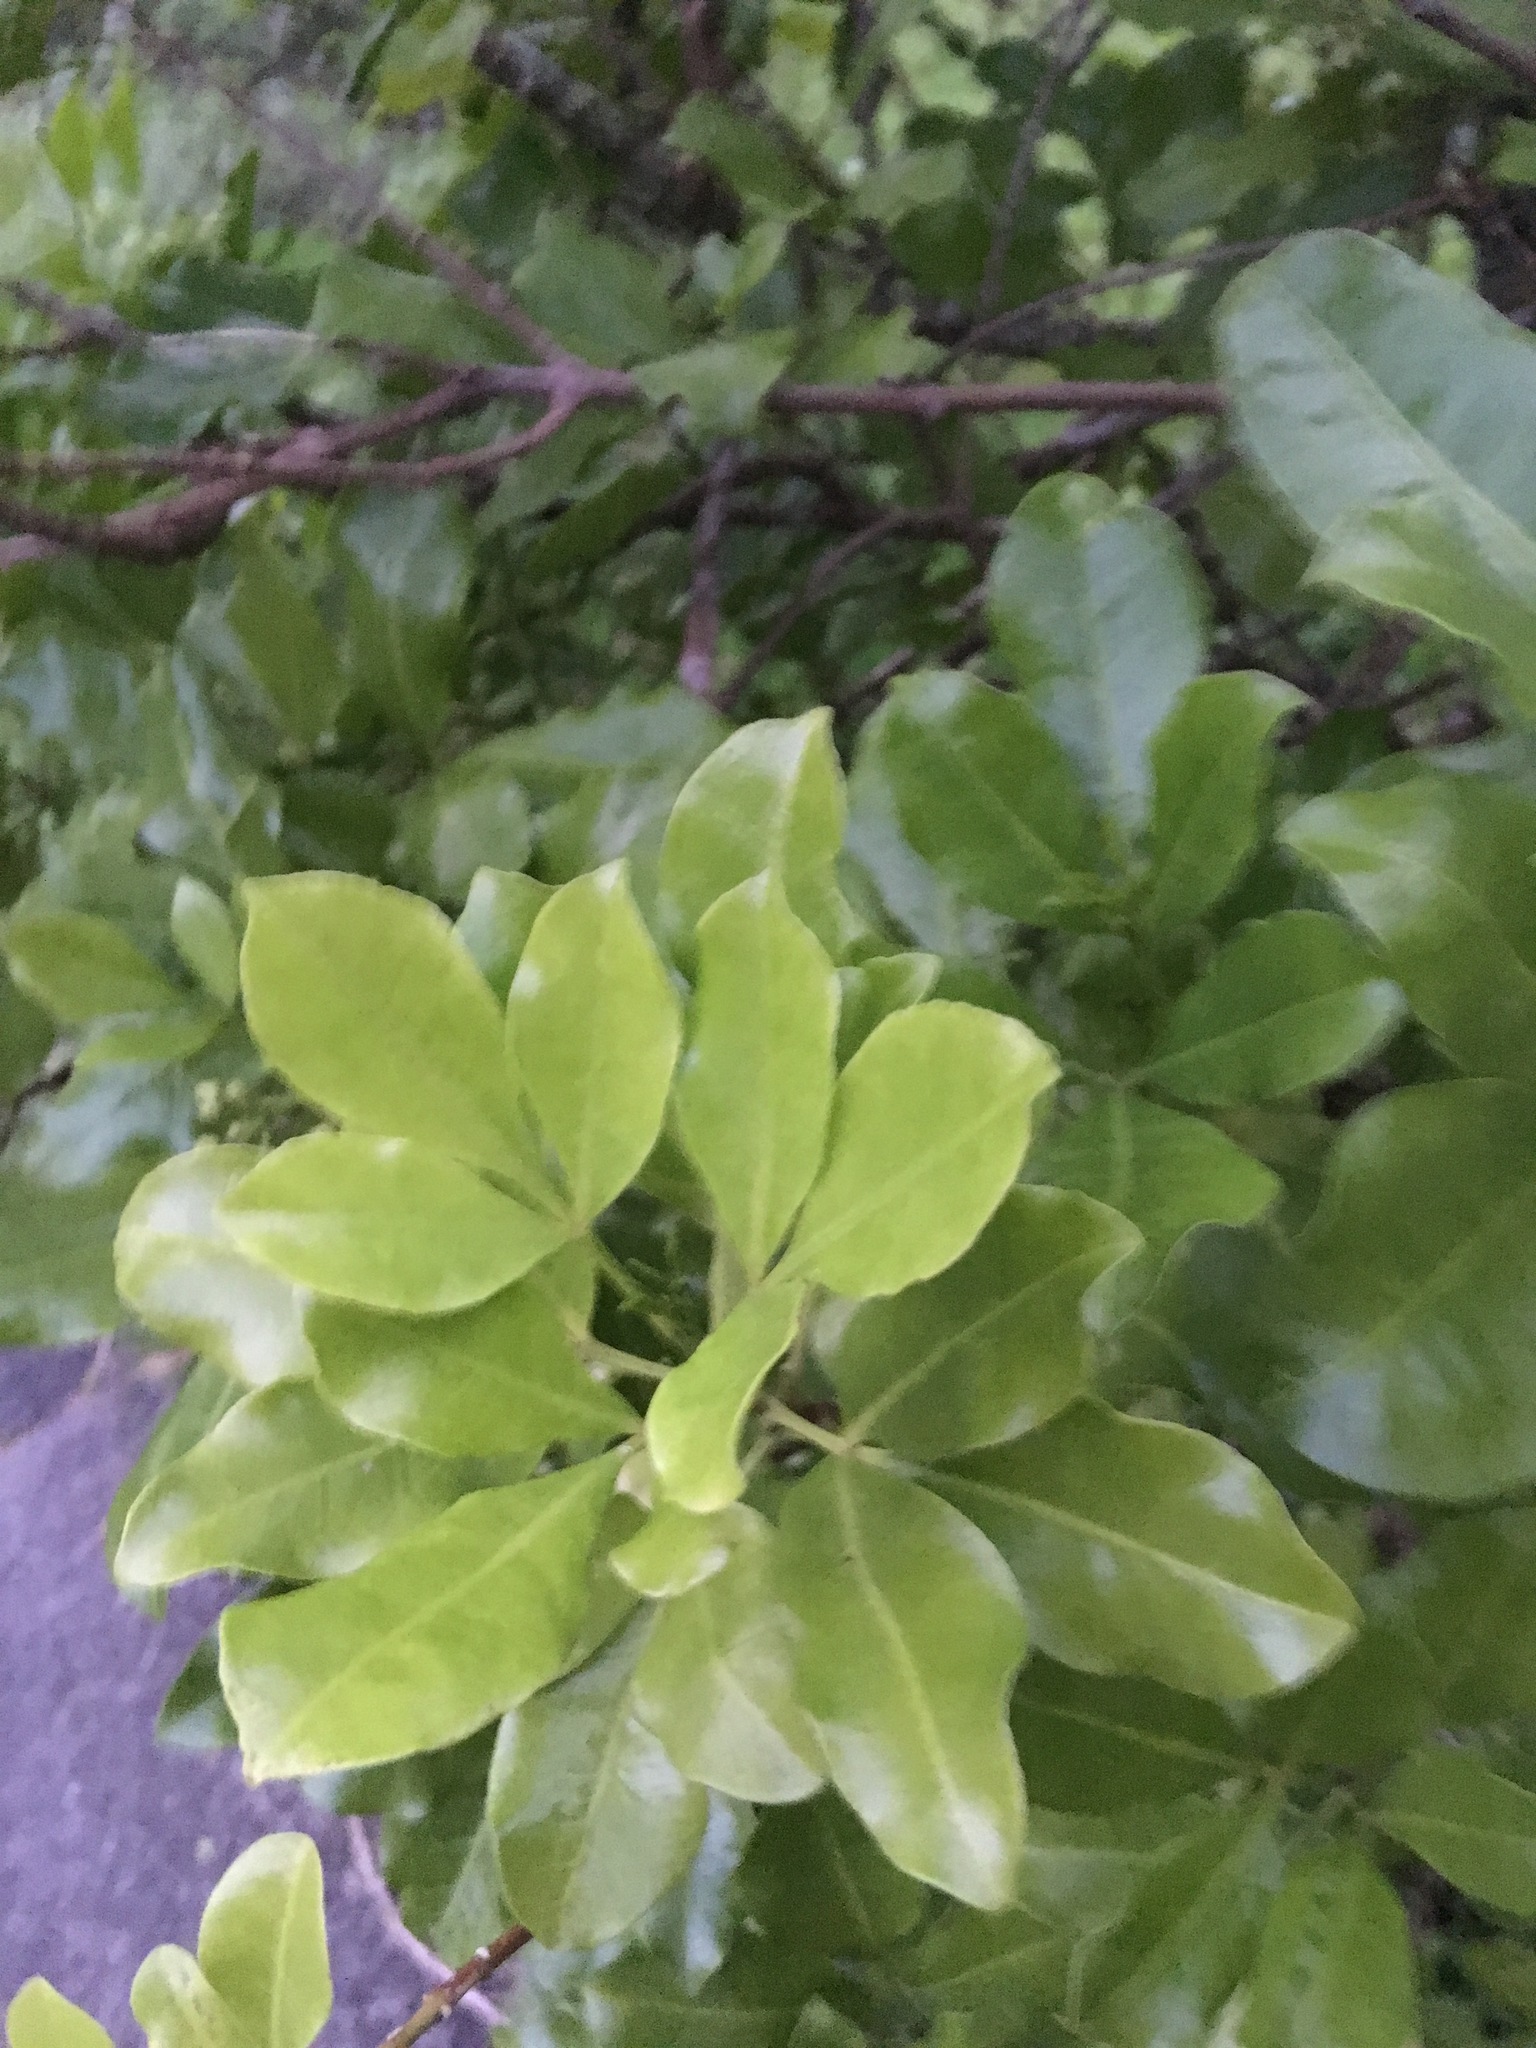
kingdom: Plantae
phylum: Tracheophyta
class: Magnoliopsida
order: Sapindales
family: Rutaceae
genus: Melicope
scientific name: Melicope ternata
